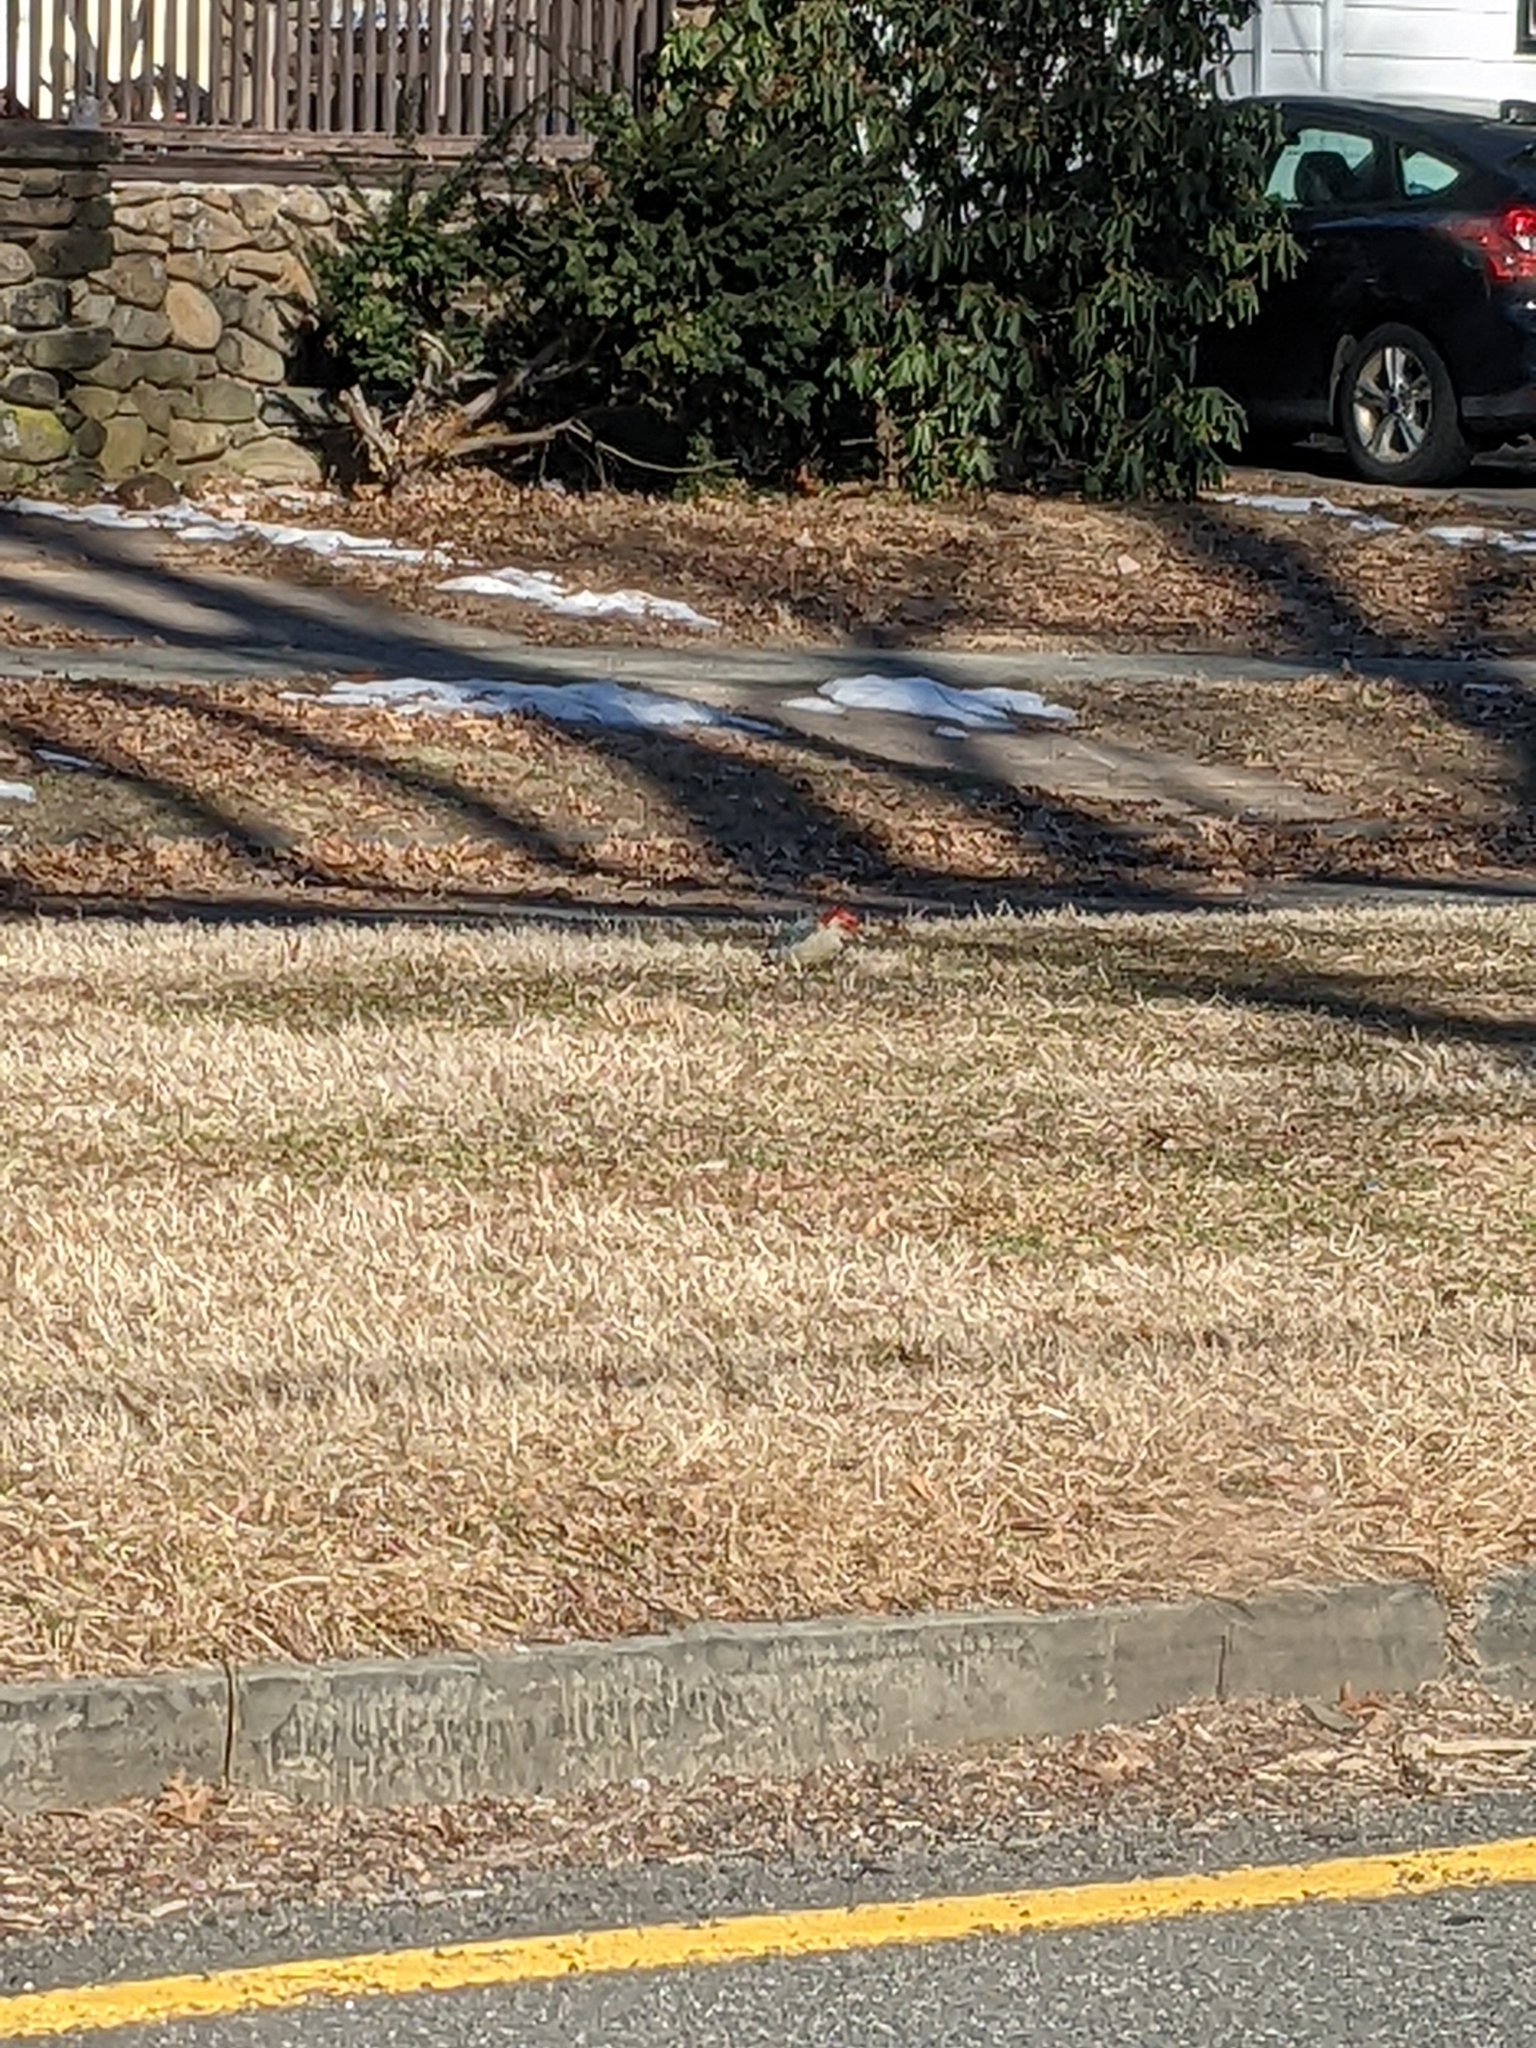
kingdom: Animalia
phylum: Chordata
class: Aves
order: Piciformes
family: Picidae
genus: Melanerpes
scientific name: Melanerpes carolinus
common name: Red-bellied woodpecker
